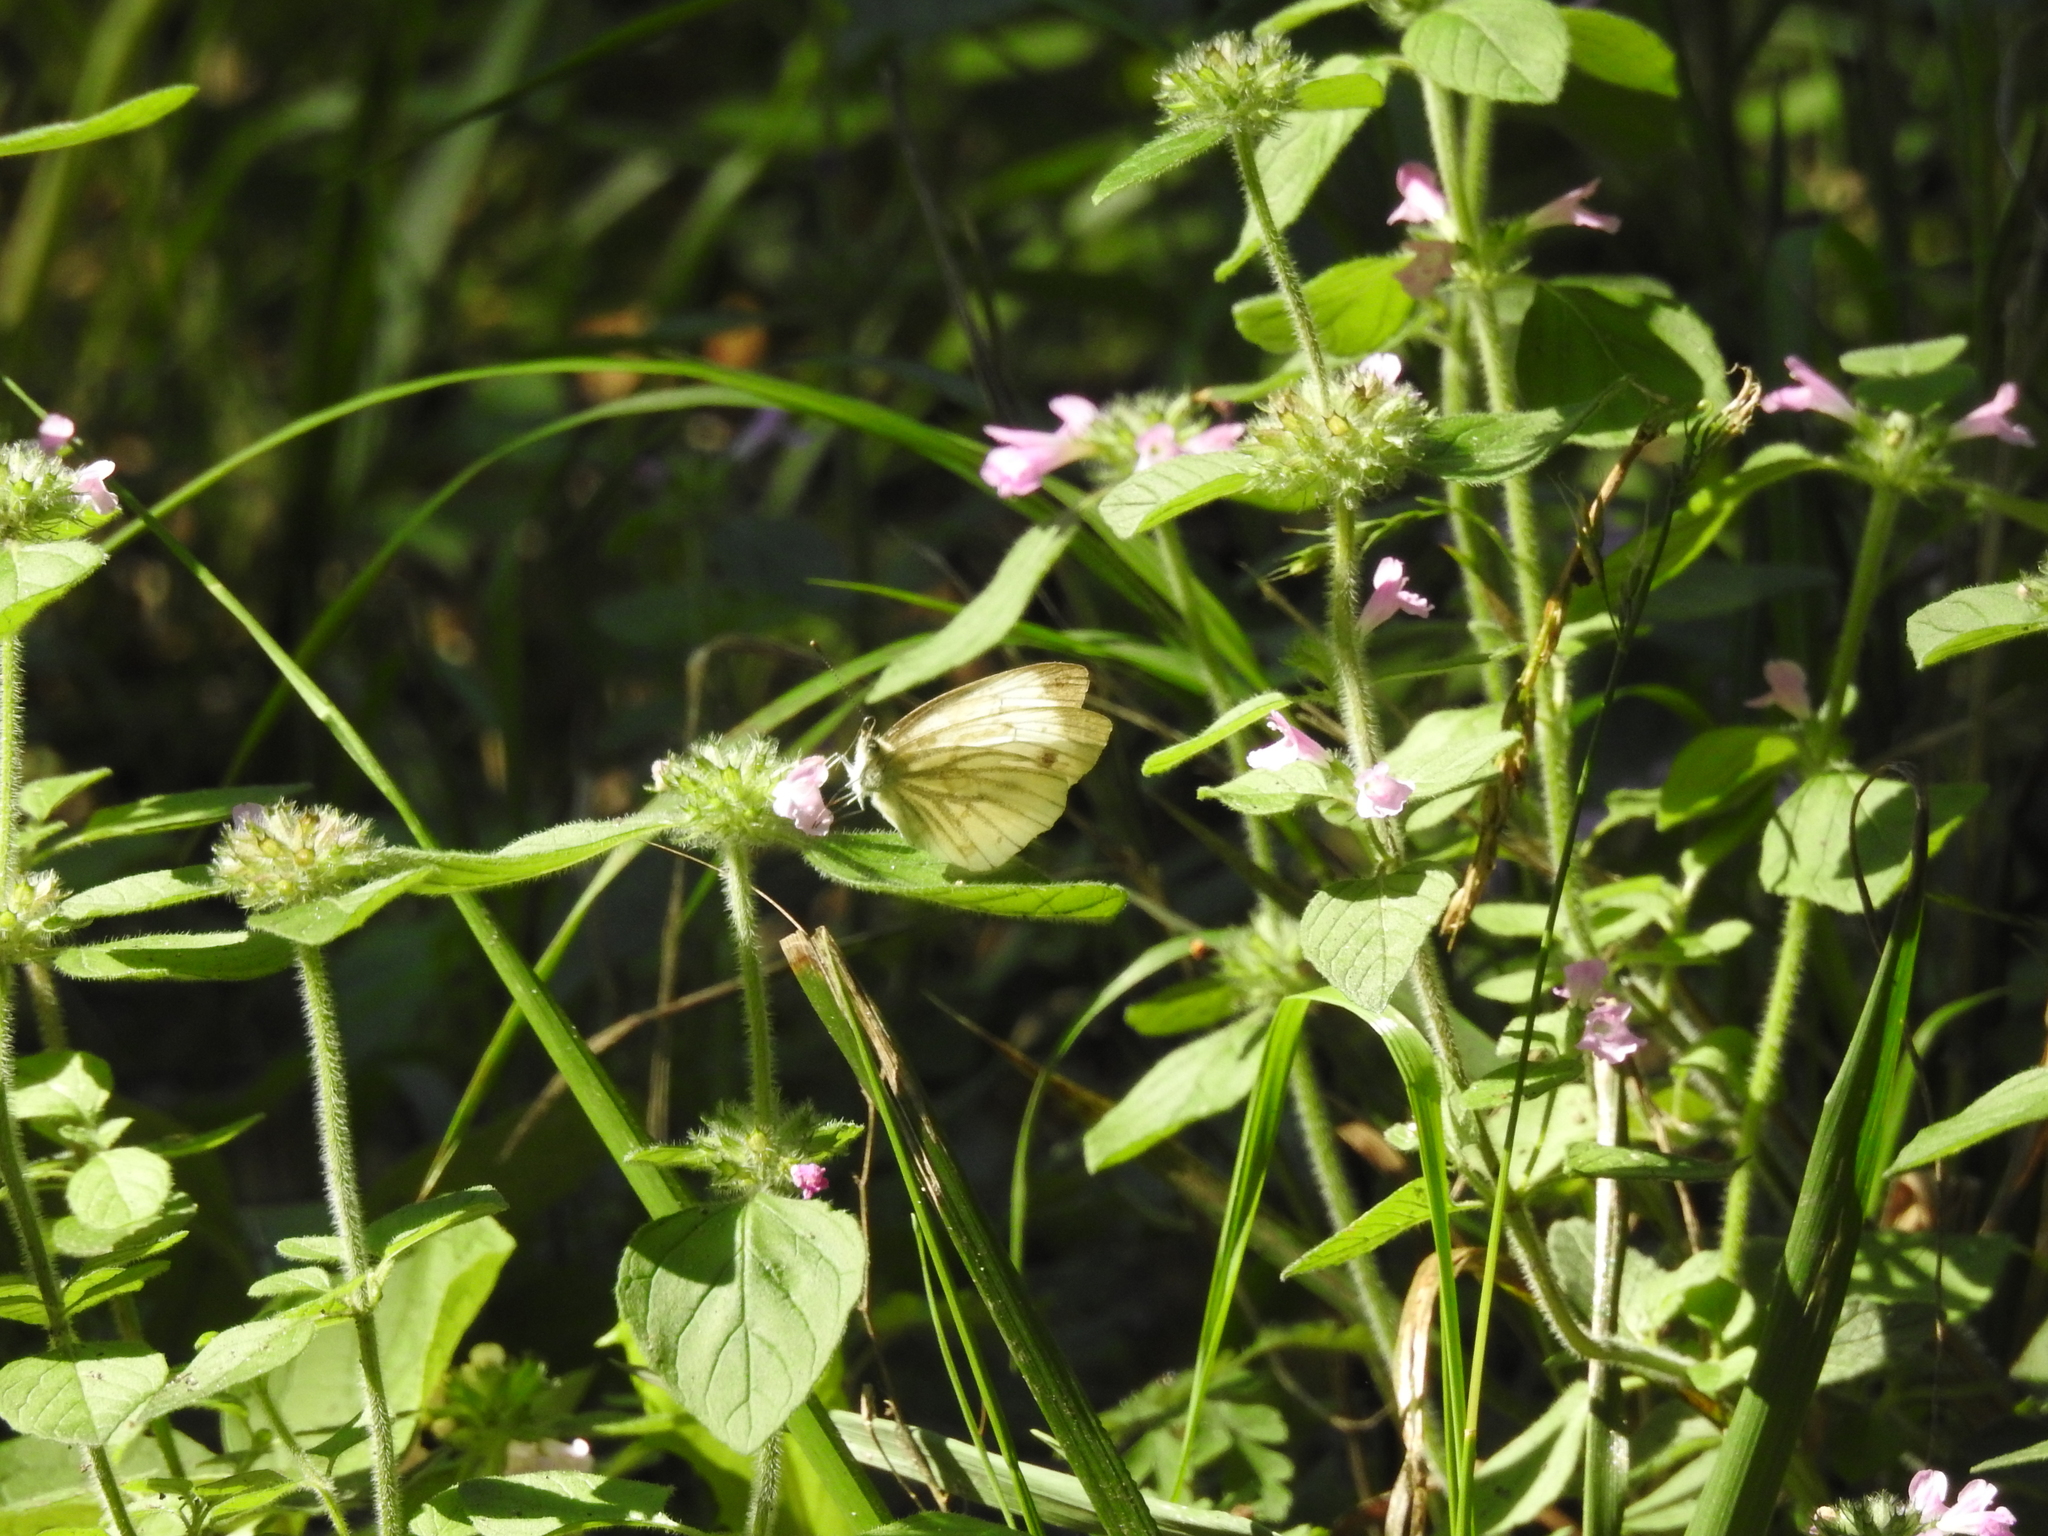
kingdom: Animalia
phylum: Arthropoda
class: Insecta
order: Lepidoptera
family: Pieridae
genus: Pieris
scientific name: Pieris napi
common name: Green-veined white
